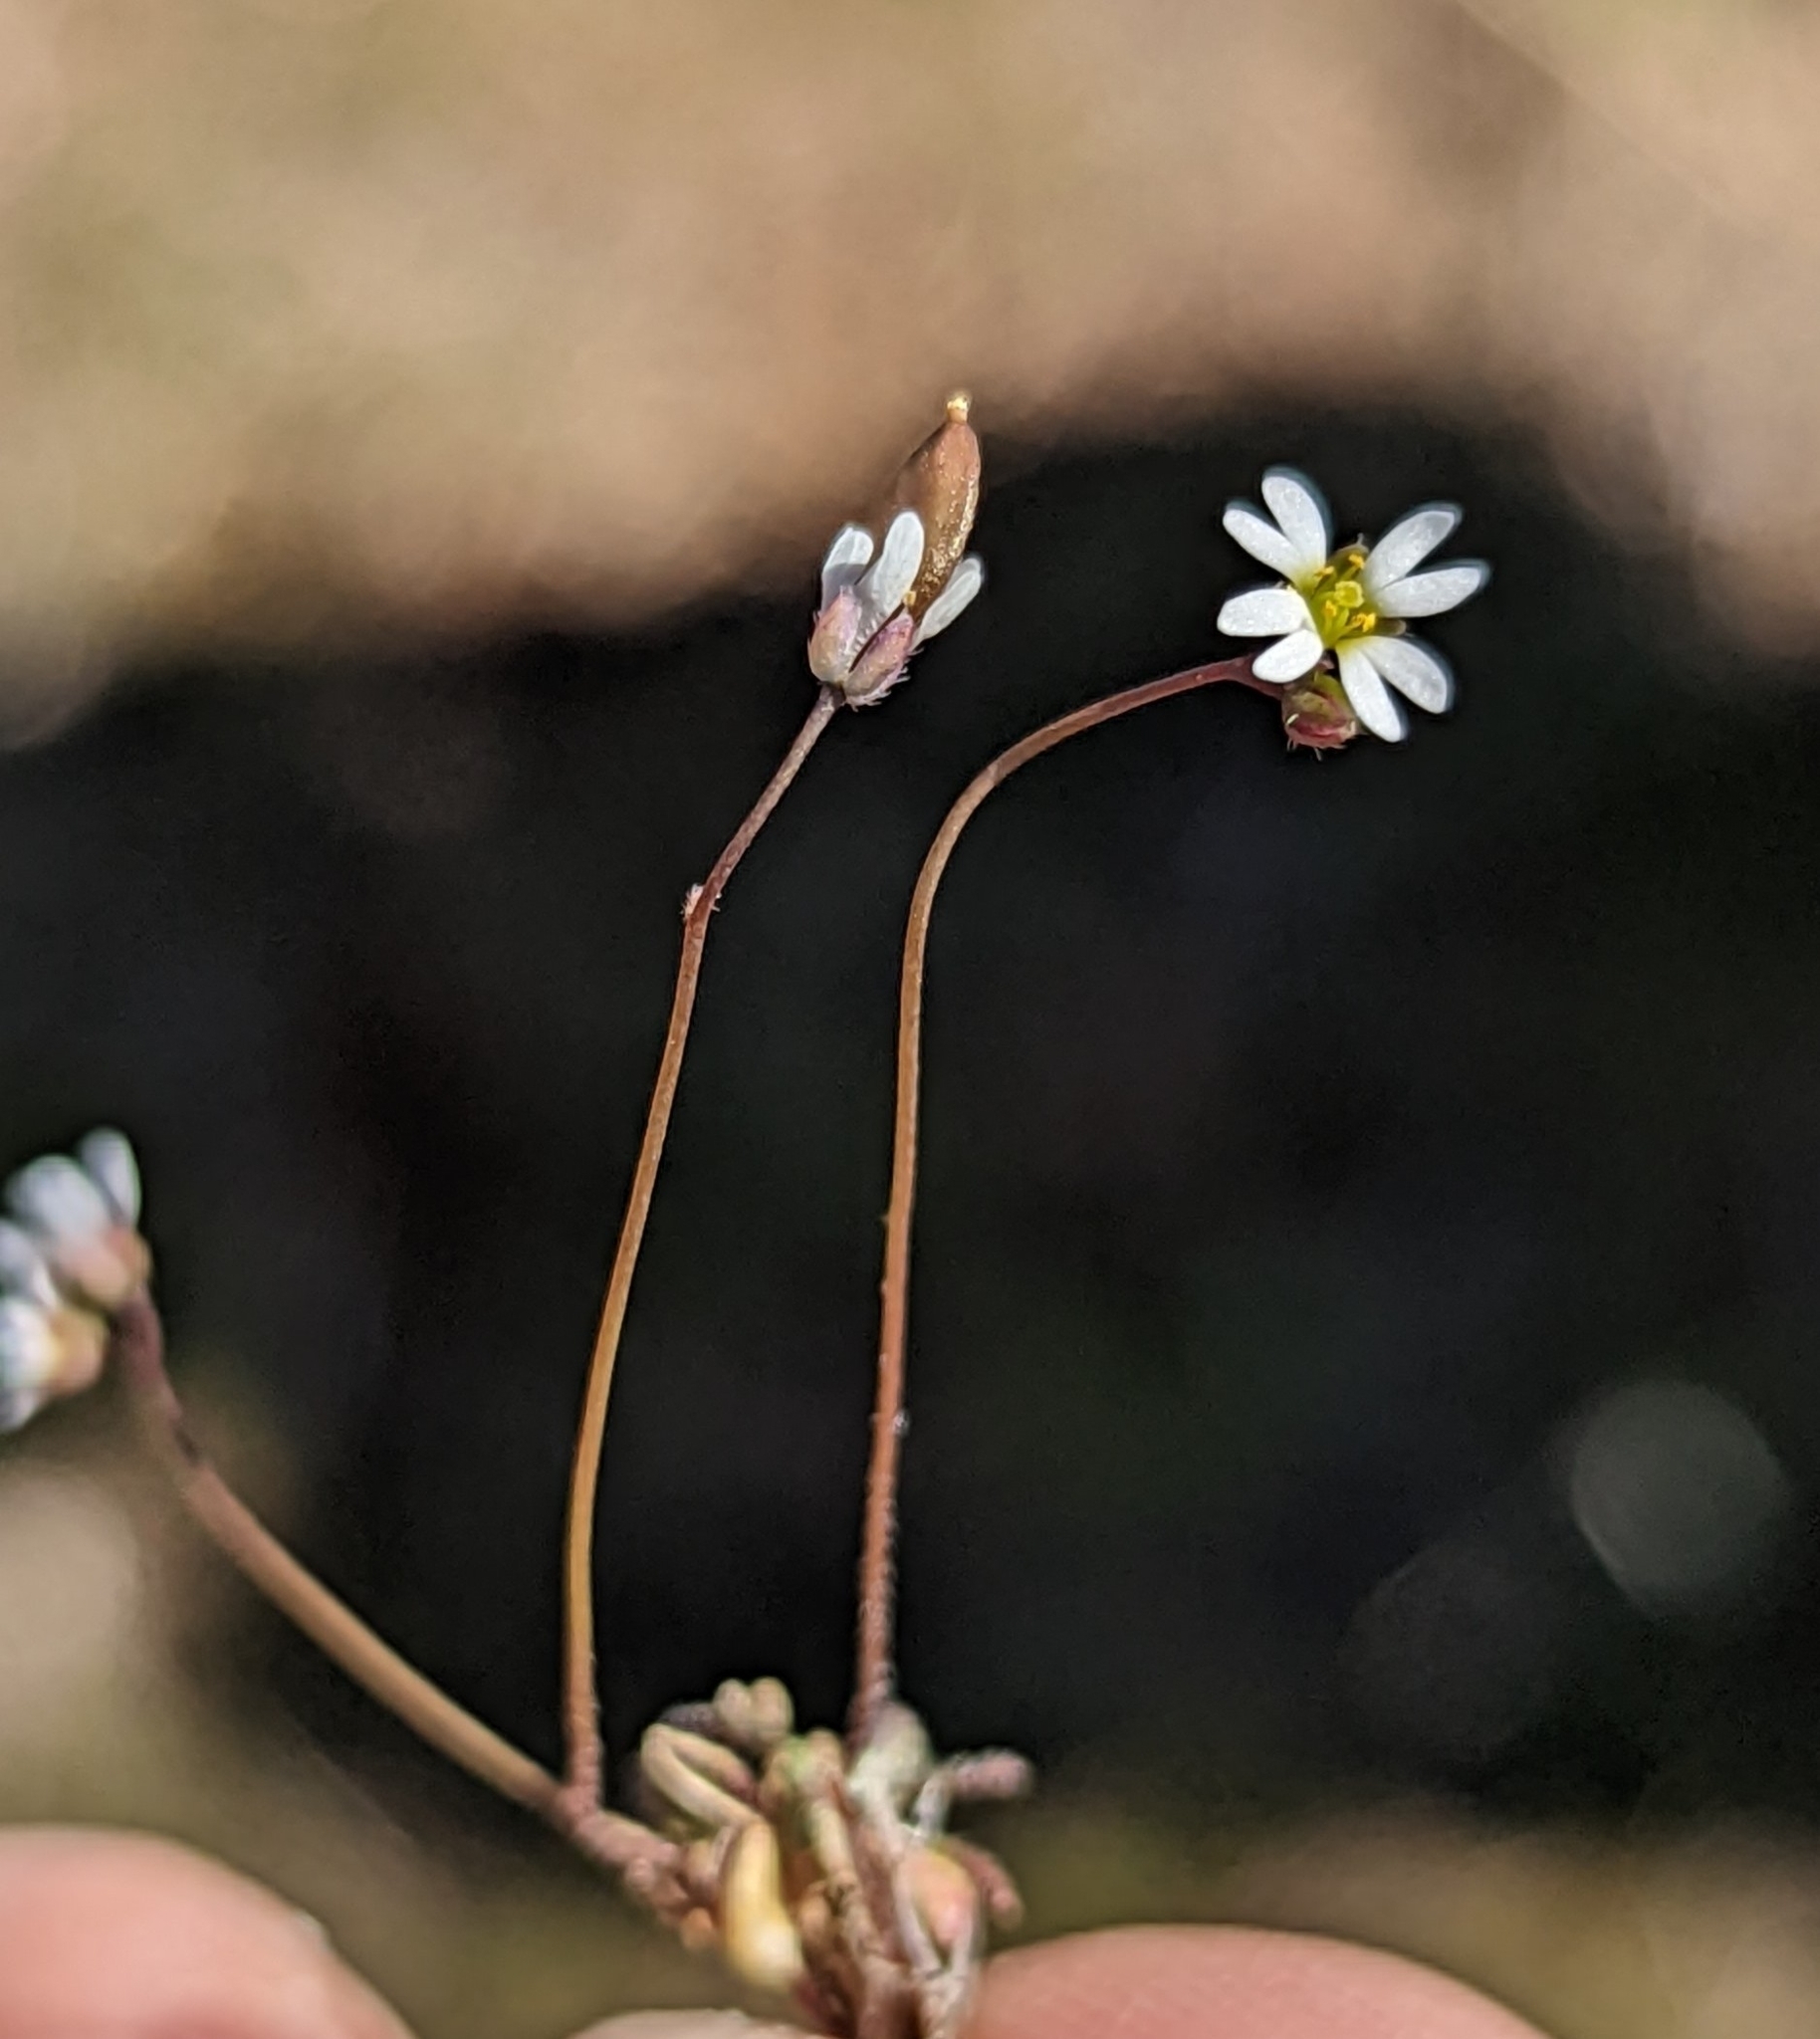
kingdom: Plantae
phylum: Tracheophyta
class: Magnoliopsida
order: Brassicales
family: Brassicaceae
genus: Draba
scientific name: Draba verna
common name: Spring draba
